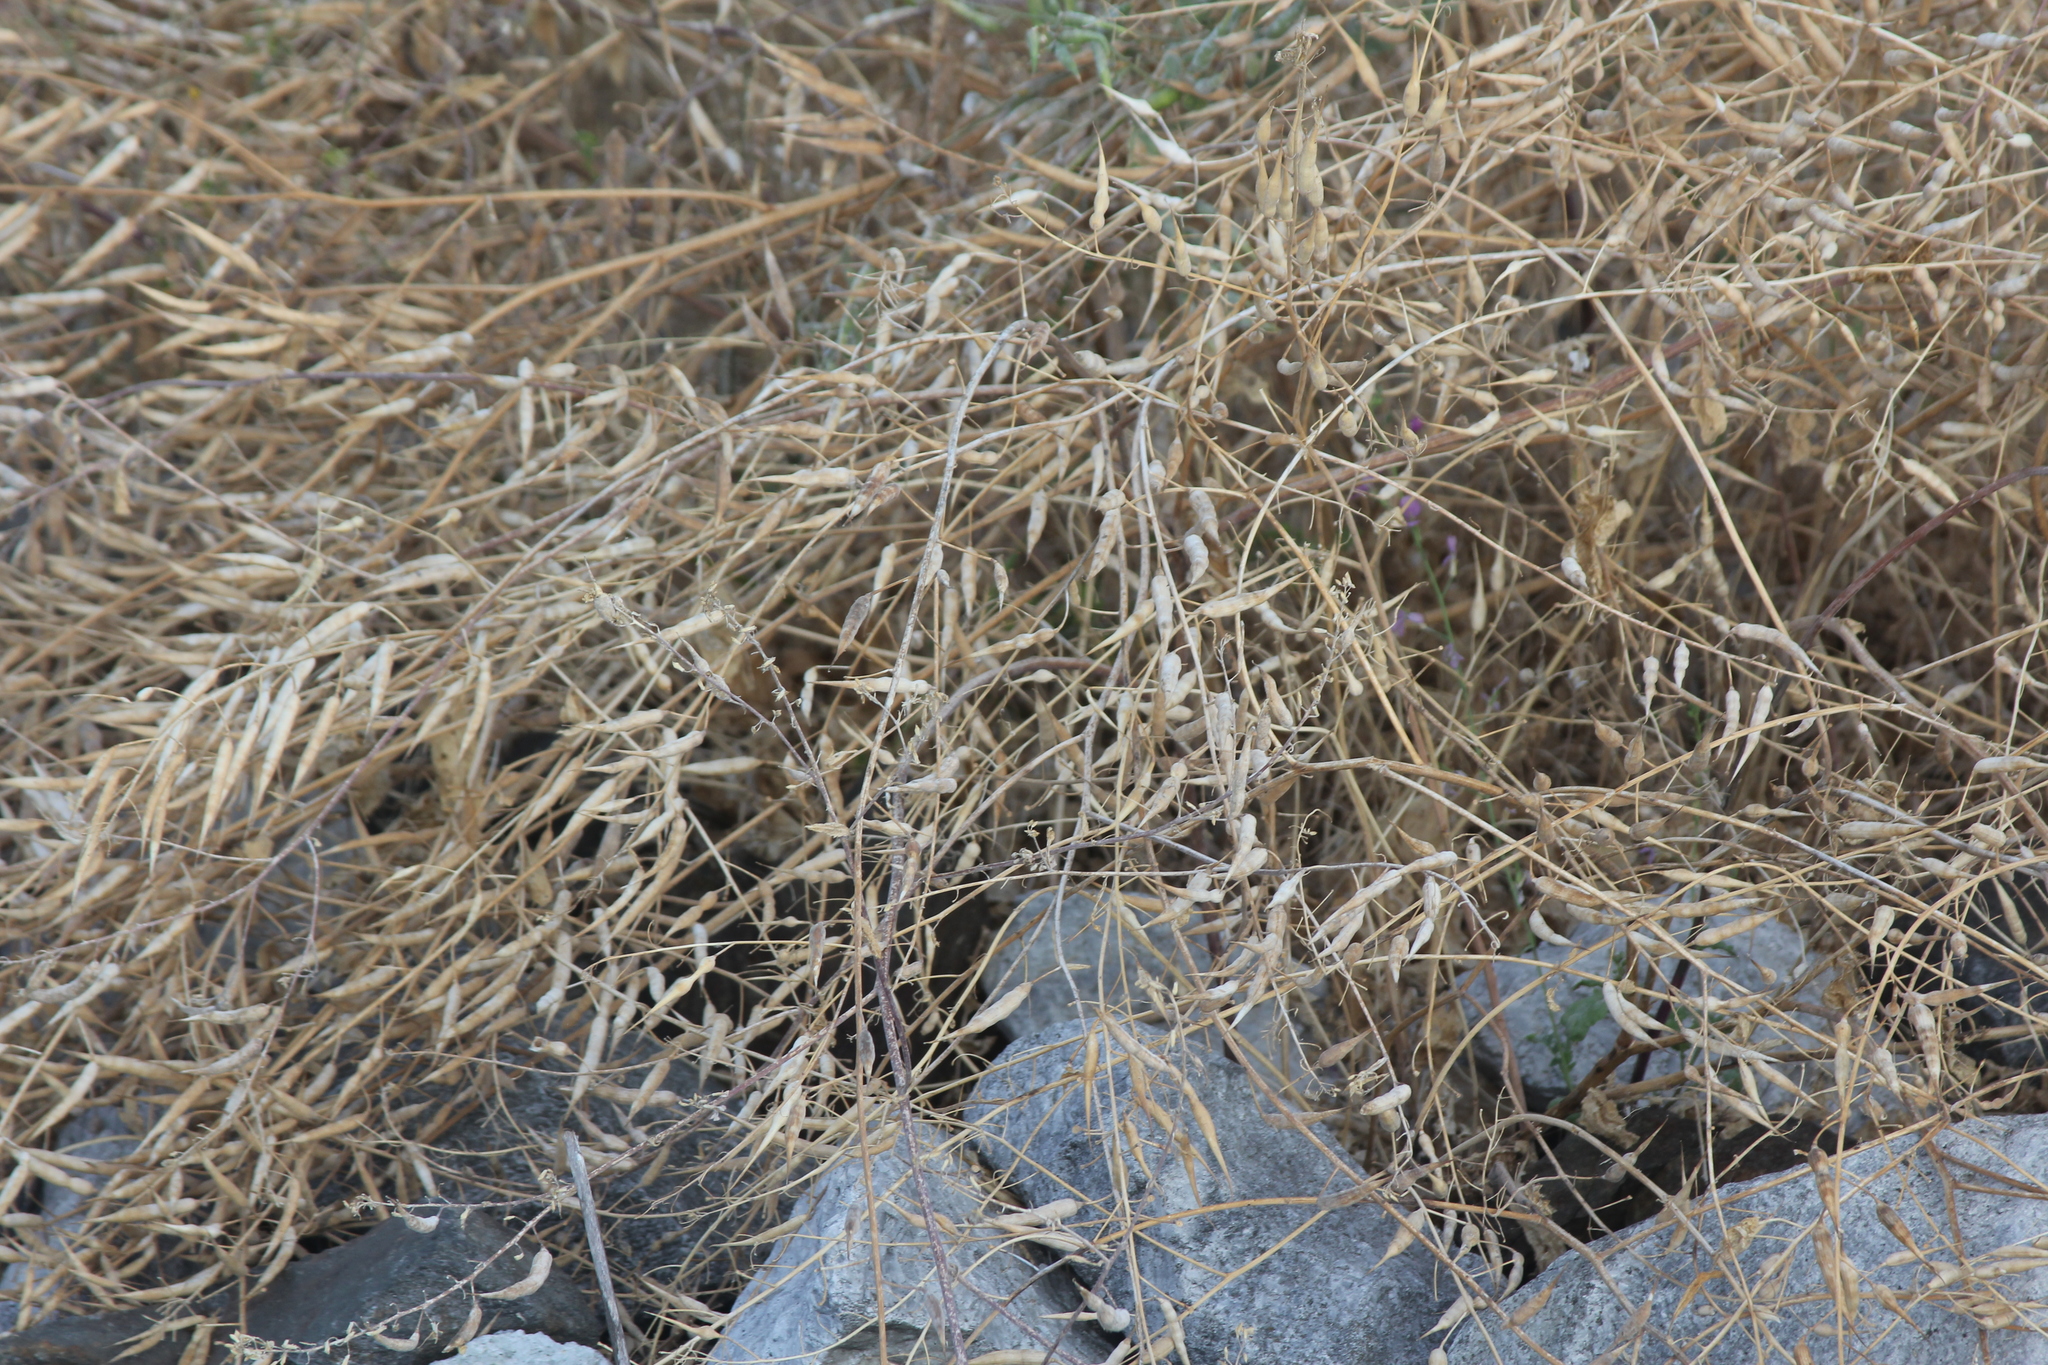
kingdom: Plantae
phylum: Tracheophyta
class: Magnoliopsida
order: Brassicales
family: Brassicaceae
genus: Raphanus
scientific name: Raphanus sativus
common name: Cultivated radish
